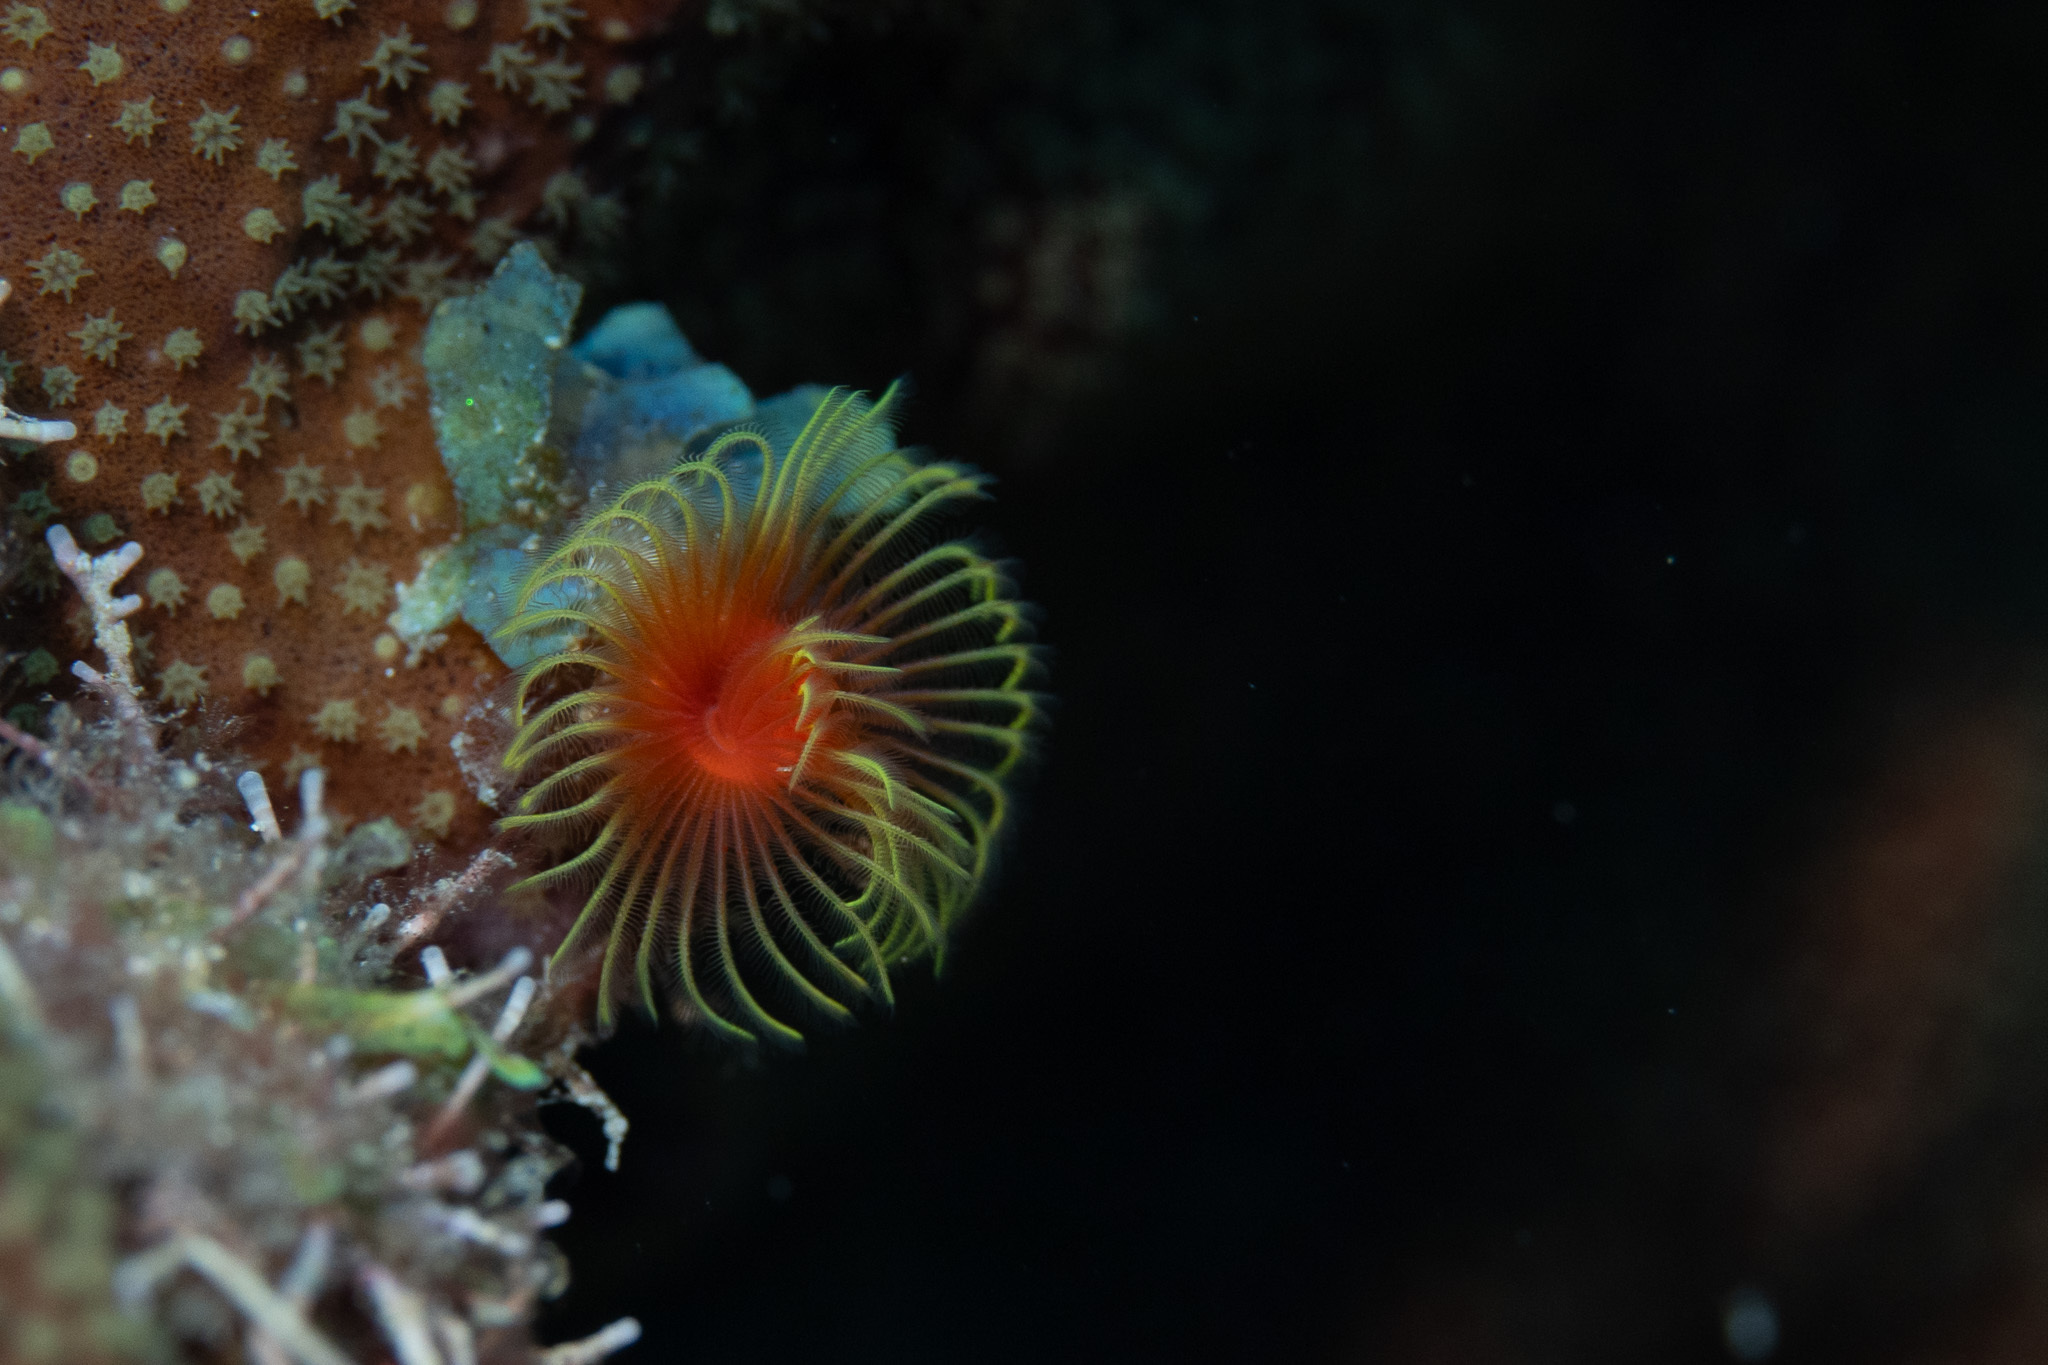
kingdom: Animalia
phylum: Annelida
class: Polychaeta
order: Sabellida
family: Serpulidae
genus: Pomatostegus
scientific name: Pomatostegus stellatus
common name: Star tubeworm
